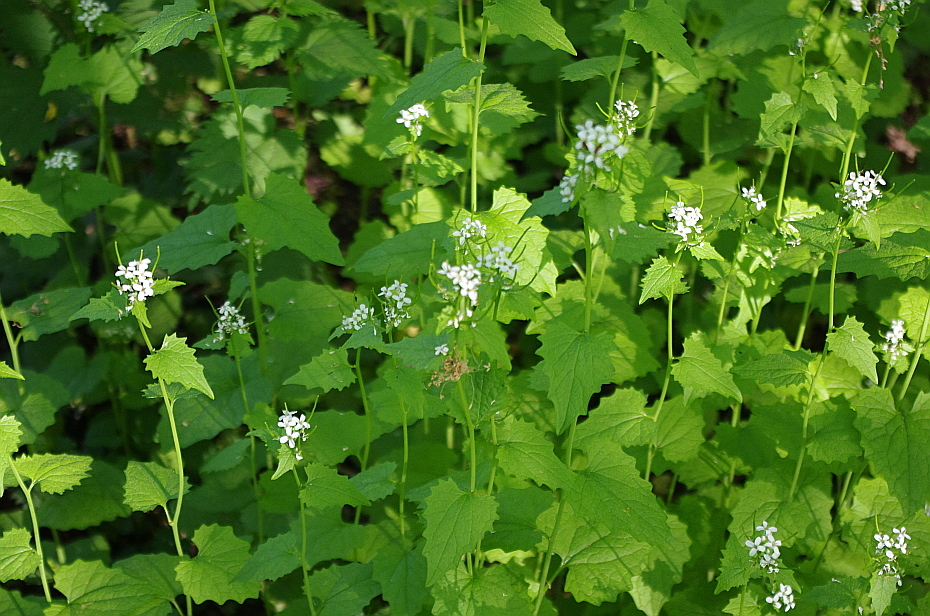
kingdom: Plantae
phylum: Tracheophyta
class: Magnoliopsida
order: Brassicales
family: Brassicaceae
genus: Alliaria
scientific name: Alliaria petiolata
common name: Garlic mustard
